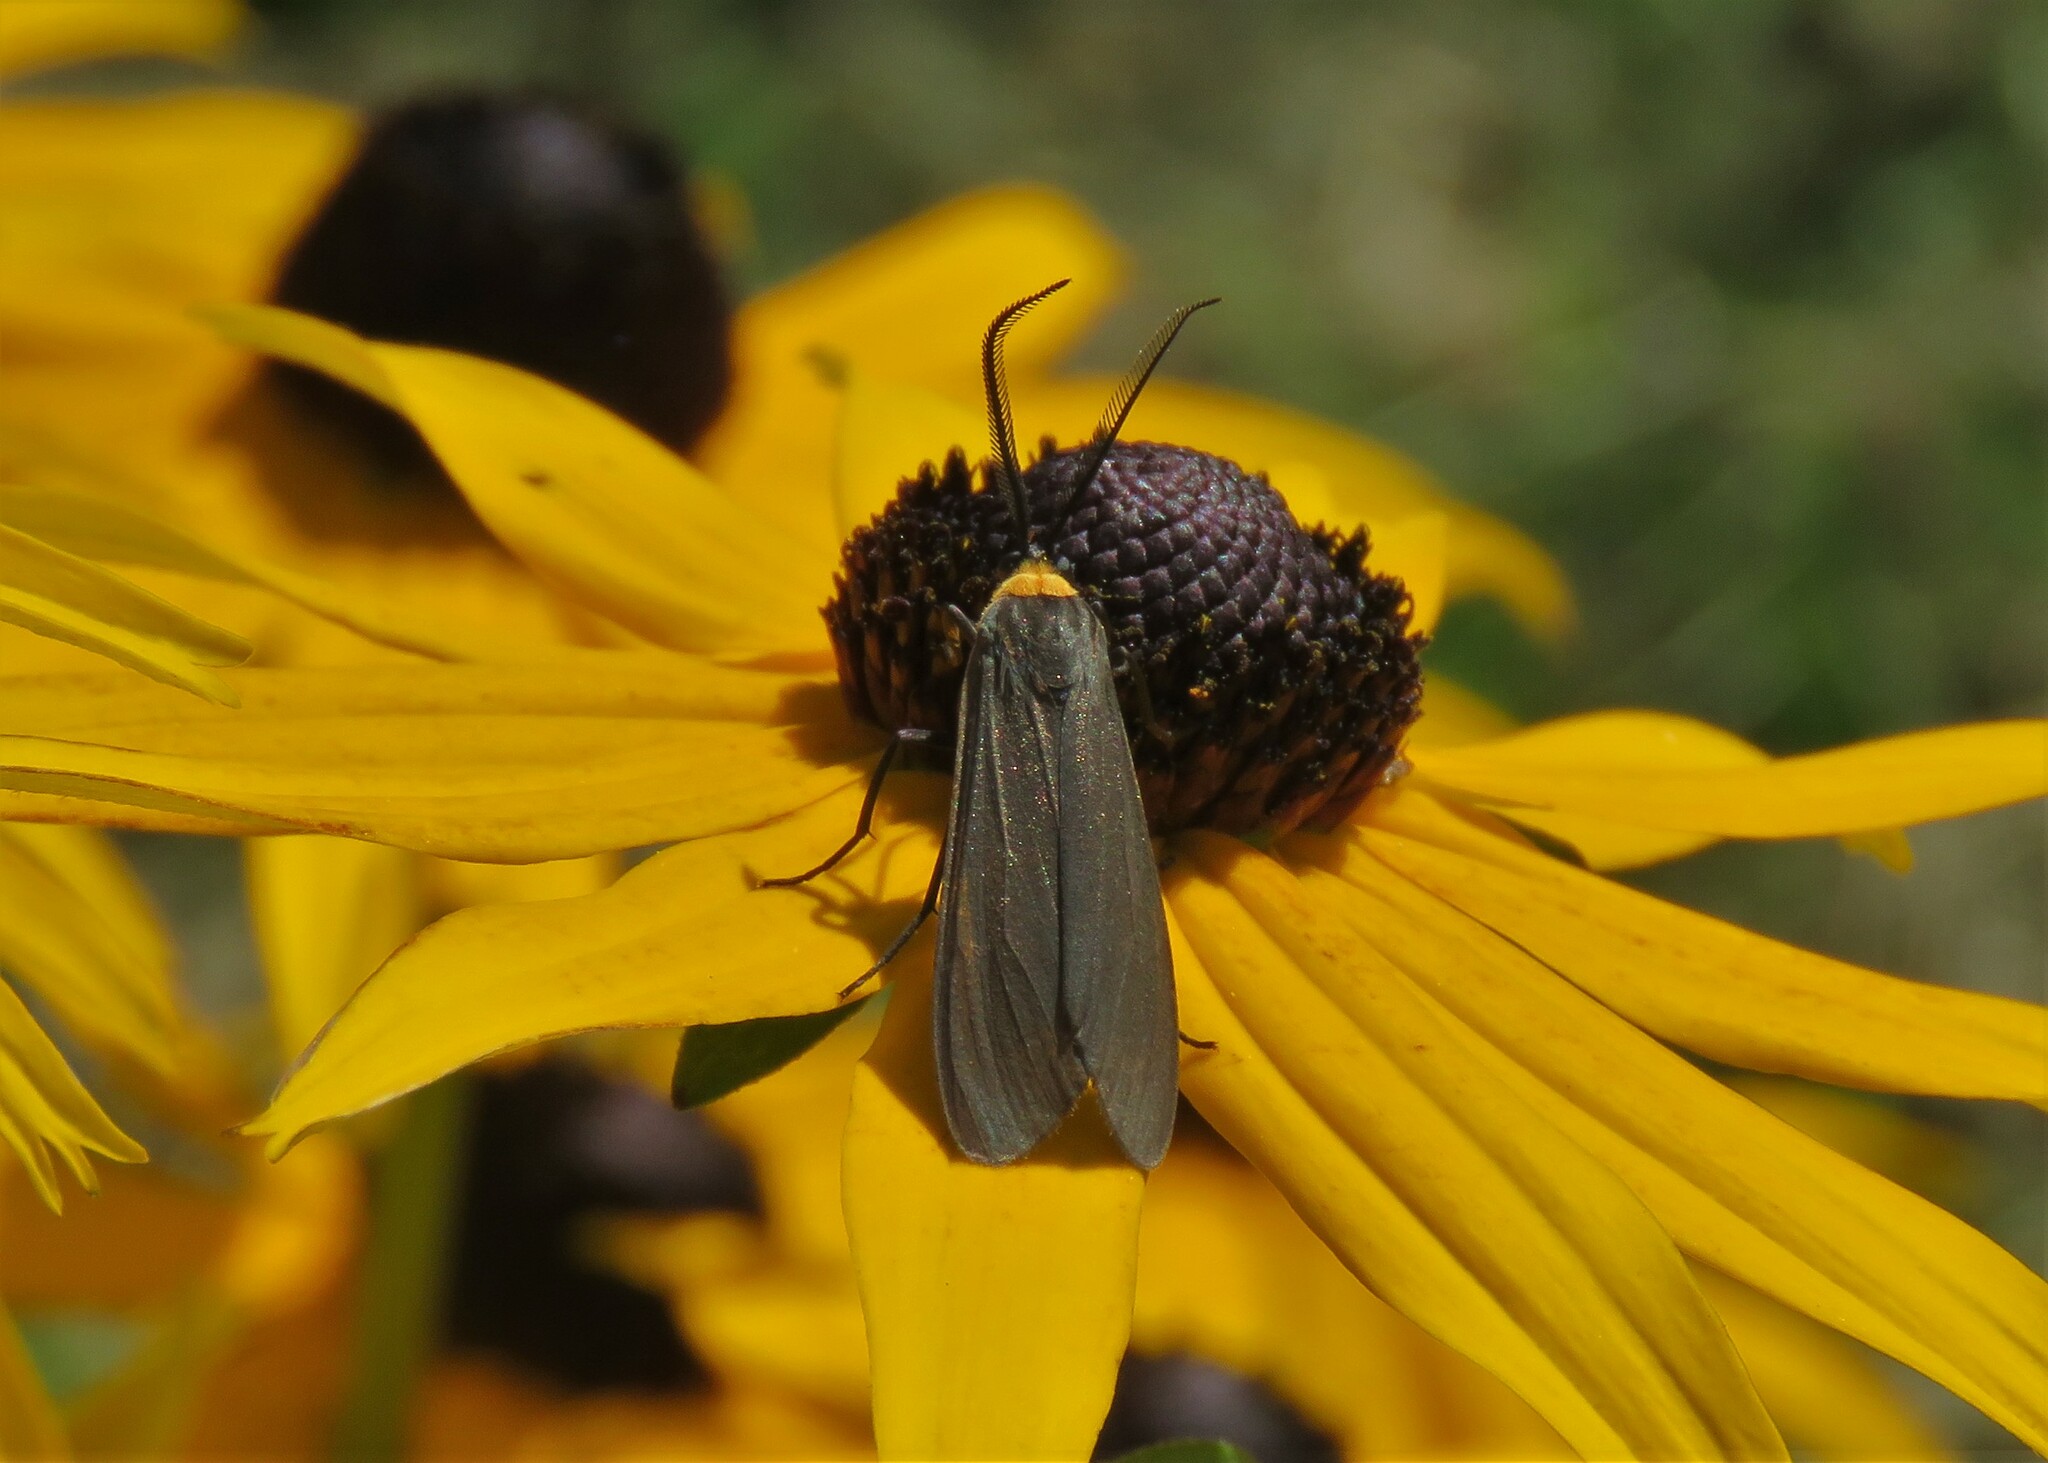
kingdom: Animalia
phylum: Arthropoda
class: Insecta
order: Lepidoptera
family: Erebidae
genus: Cisseps
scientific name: Cisseps fulvicollis
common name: Yellow-collared scape moth
